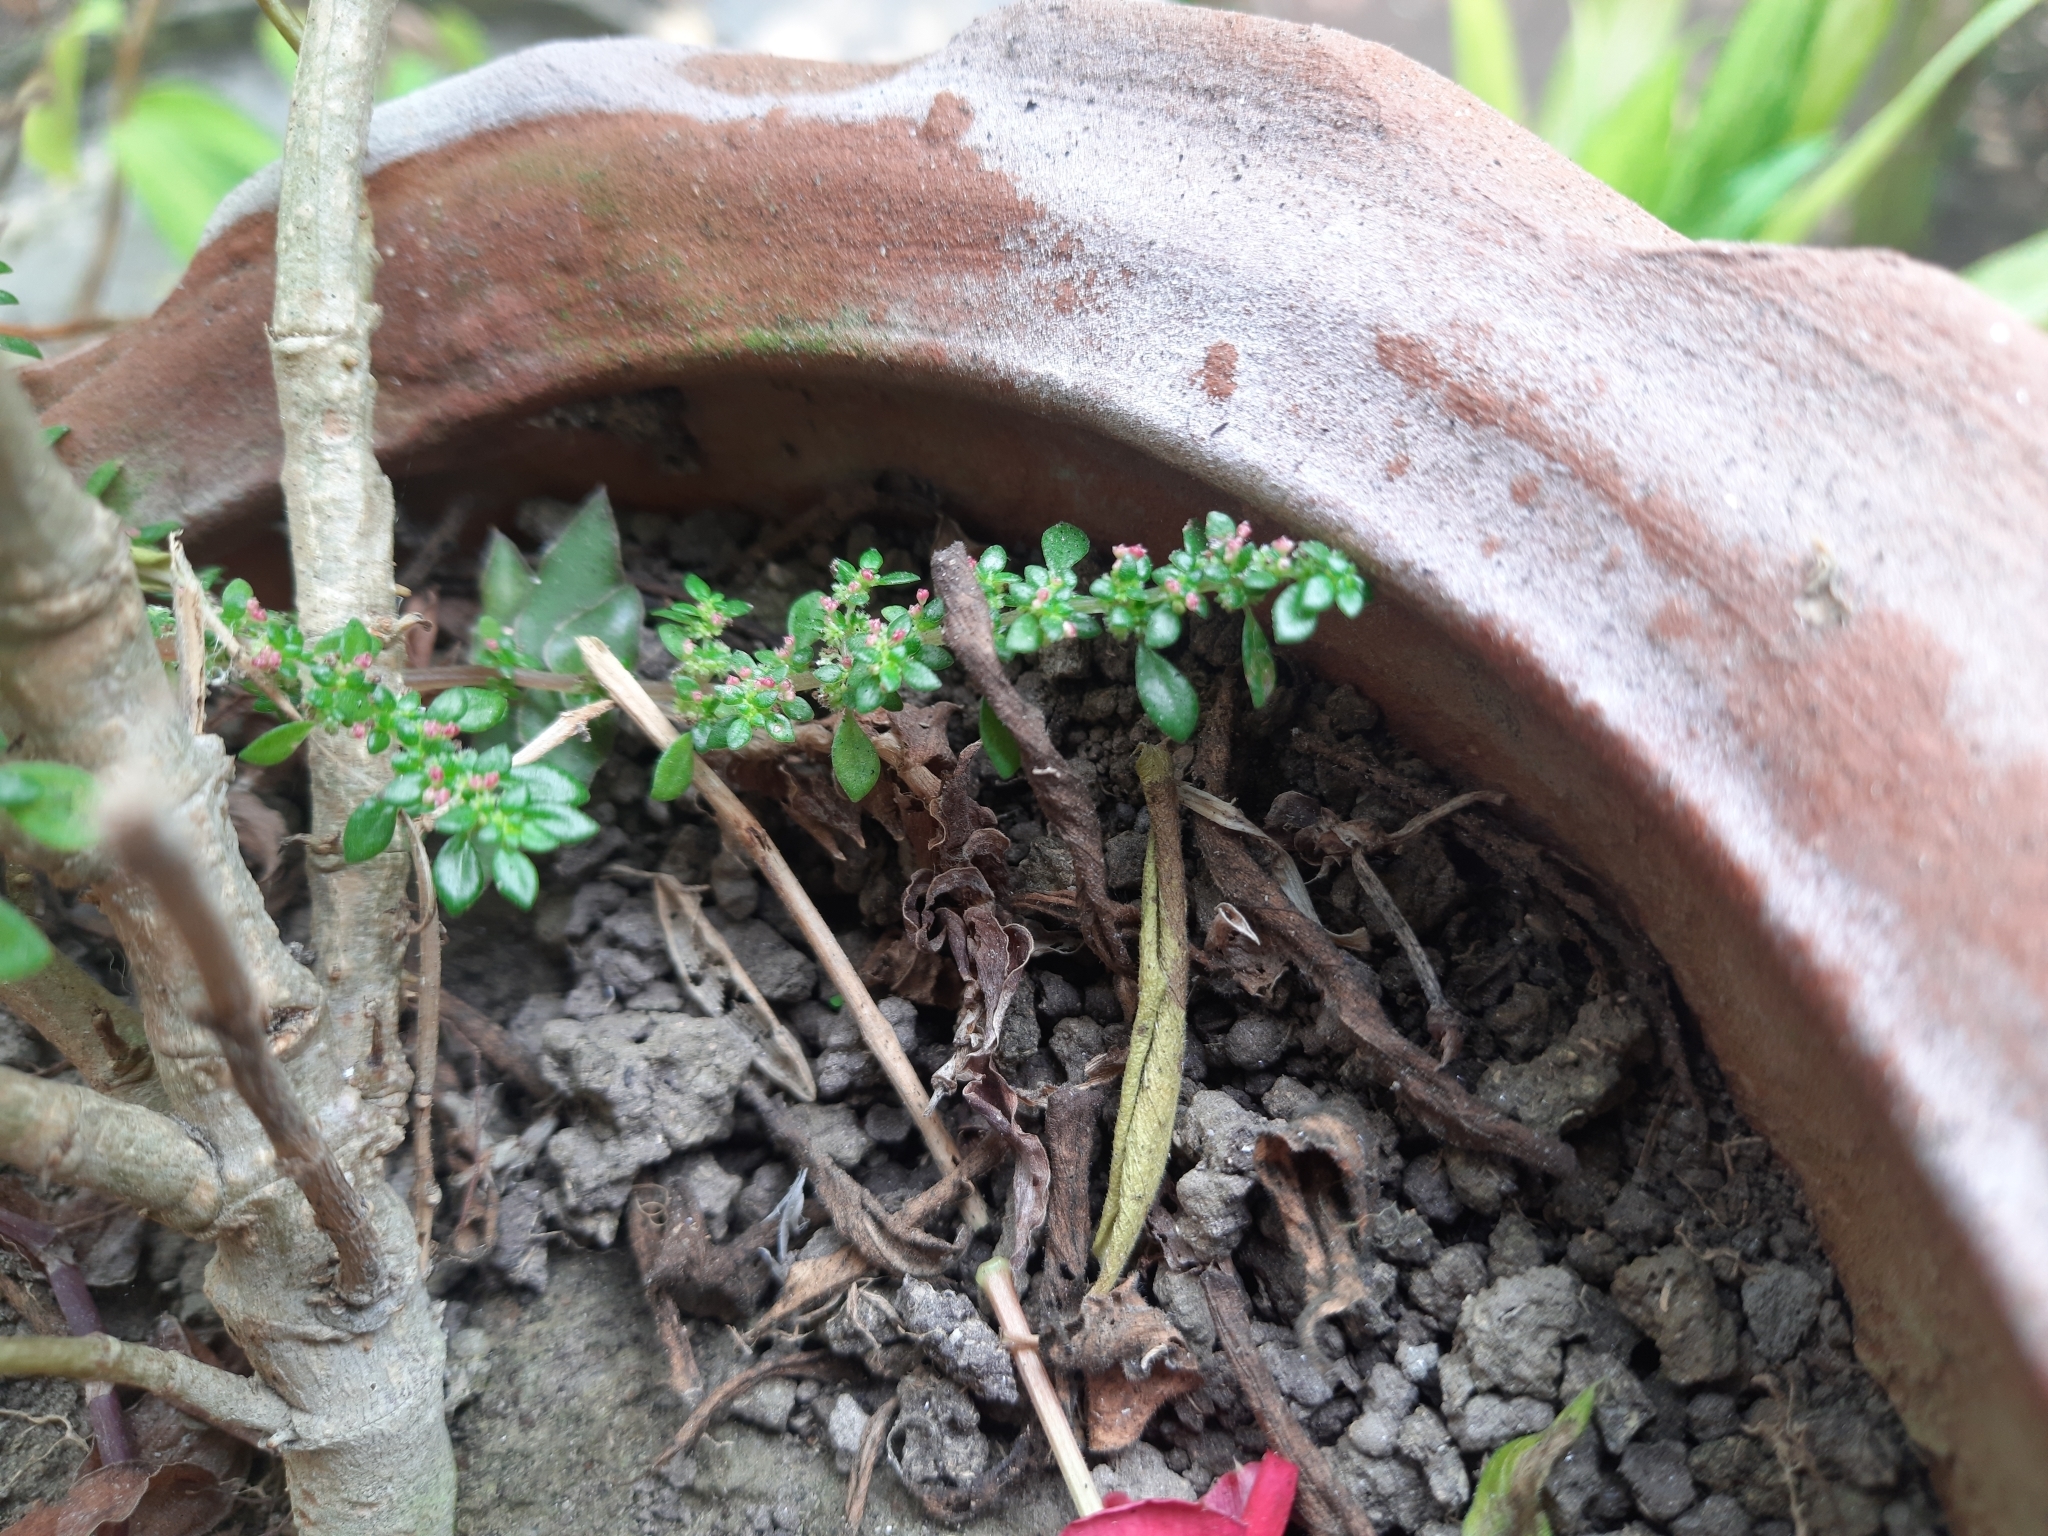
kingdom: Plantae
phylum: Tracheophyta
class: Magnoliopsida
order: Rosales
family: Urticaceae
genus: Pilea
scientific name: Pilea microphylla
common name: Artillery-plant
